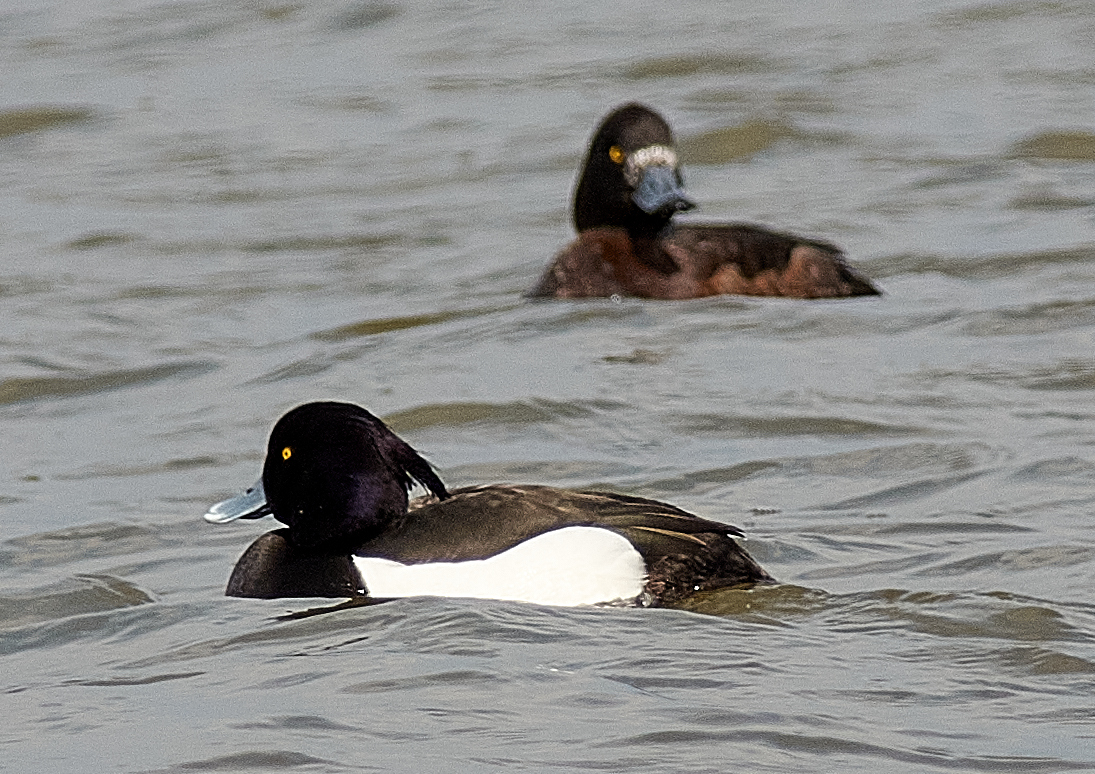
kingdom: Animalia
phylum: Chordata
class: Aves
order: Anseriformes
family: Anatidae
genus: Aythya
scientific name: Aythya fuligula
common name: Tufted duck
